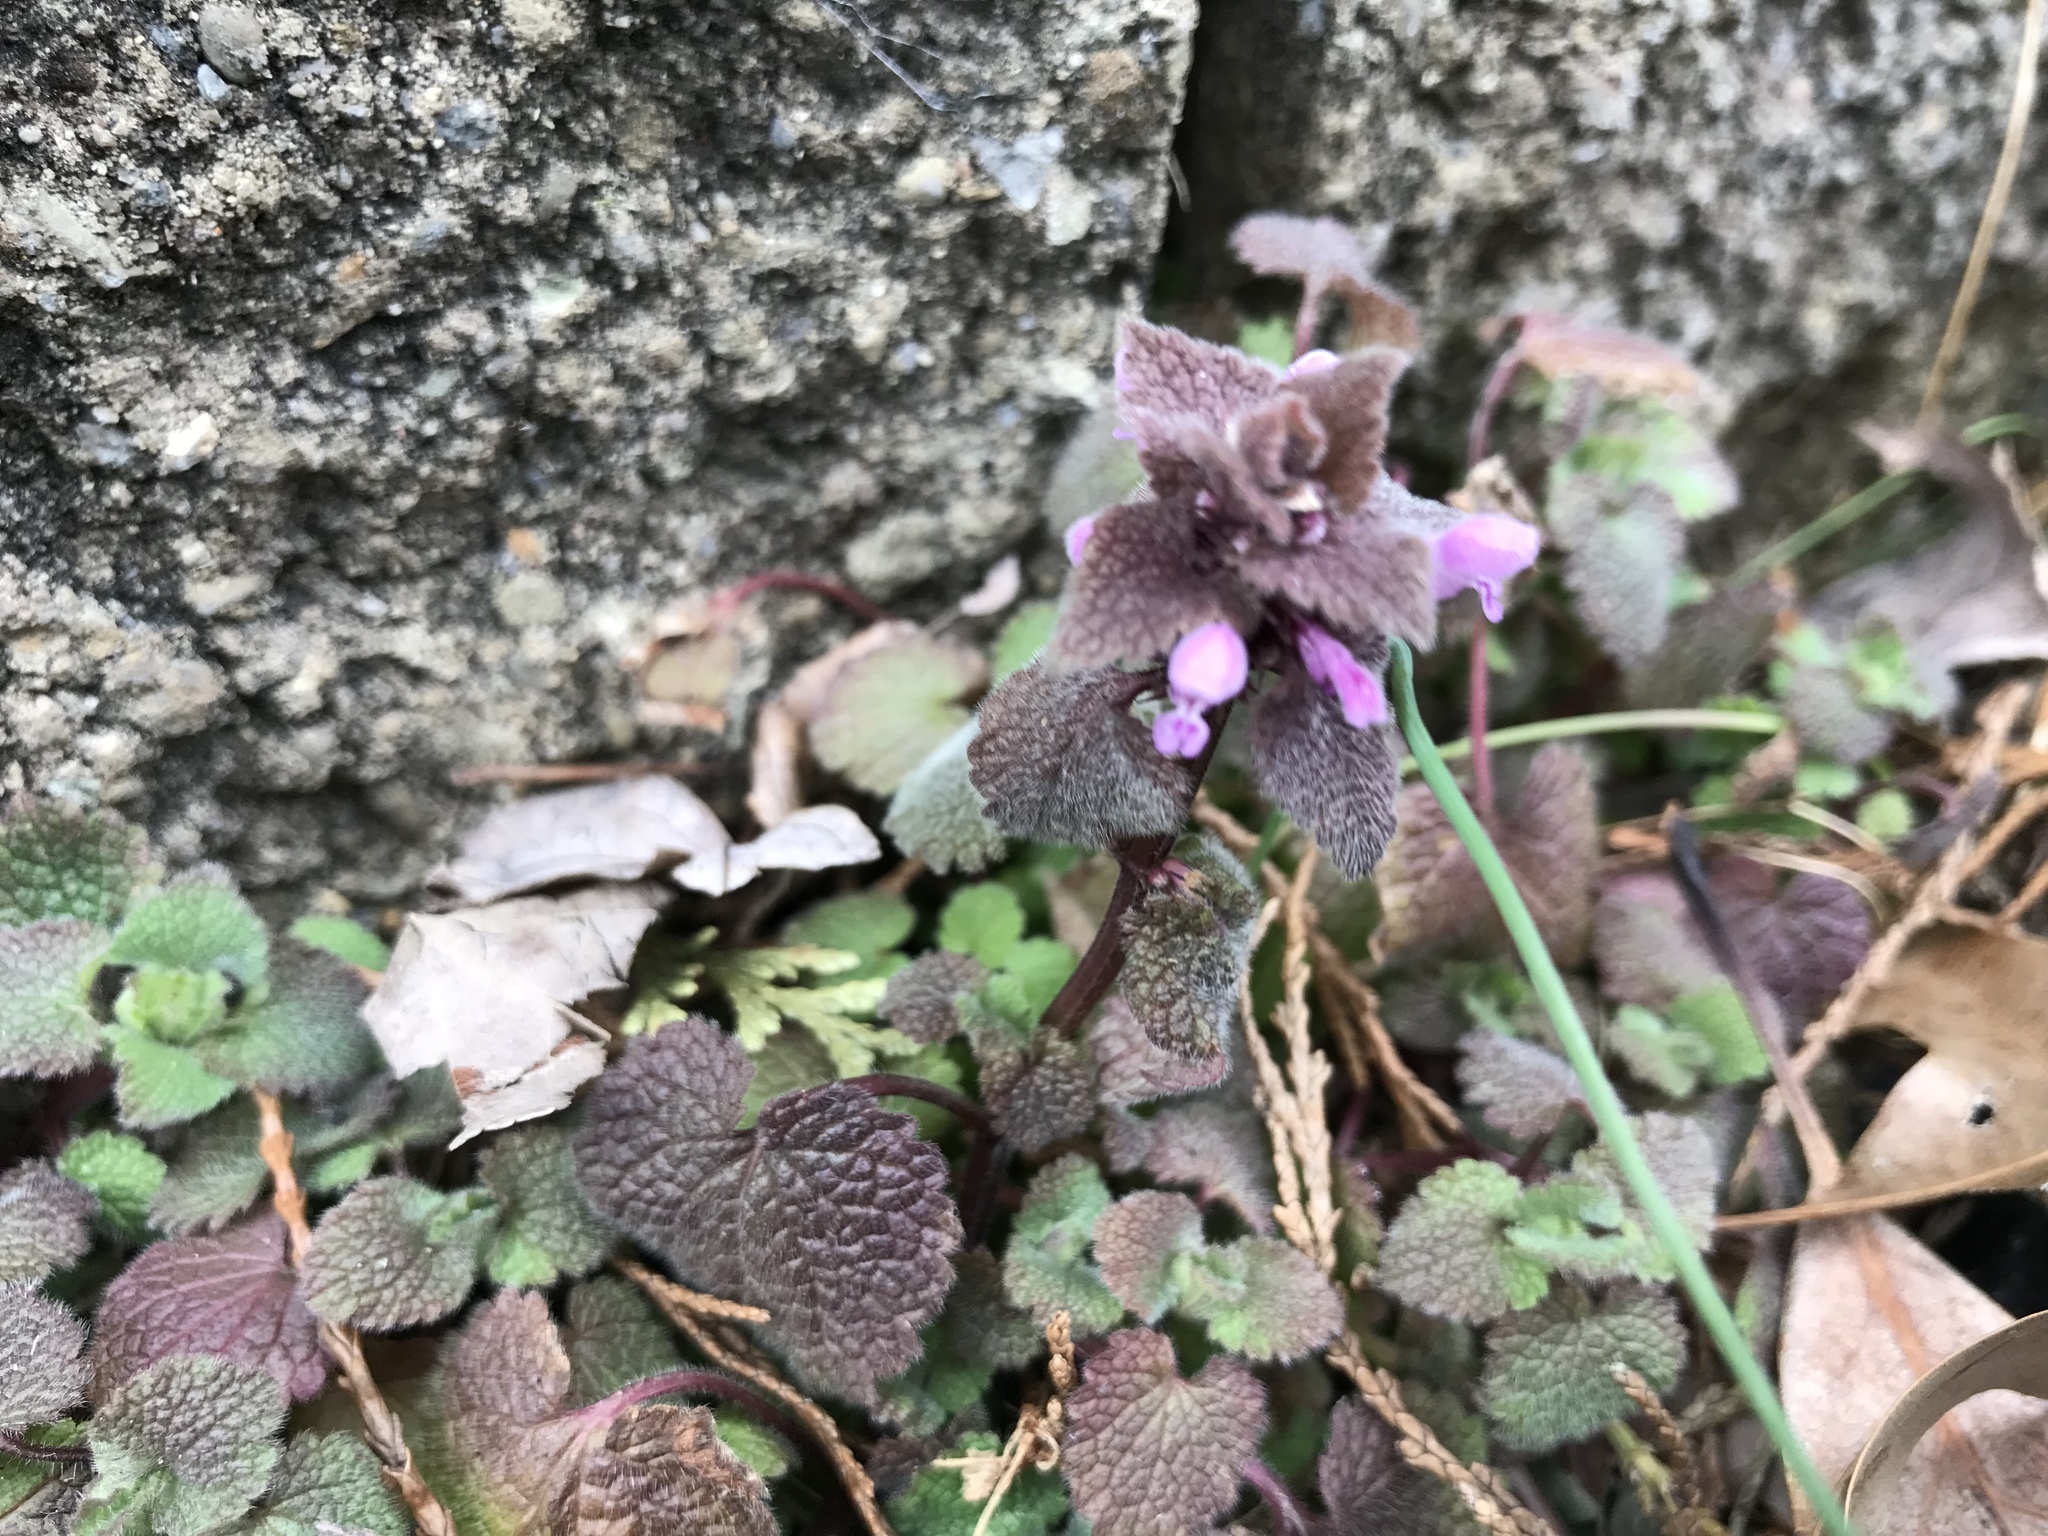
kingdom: Plantae
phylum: Tracheophyta
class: Magnoliopsida
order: Lamiales
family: Lamiaceae
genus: Lamium
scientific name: Lamium purpureum
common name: Red dead-nettle
